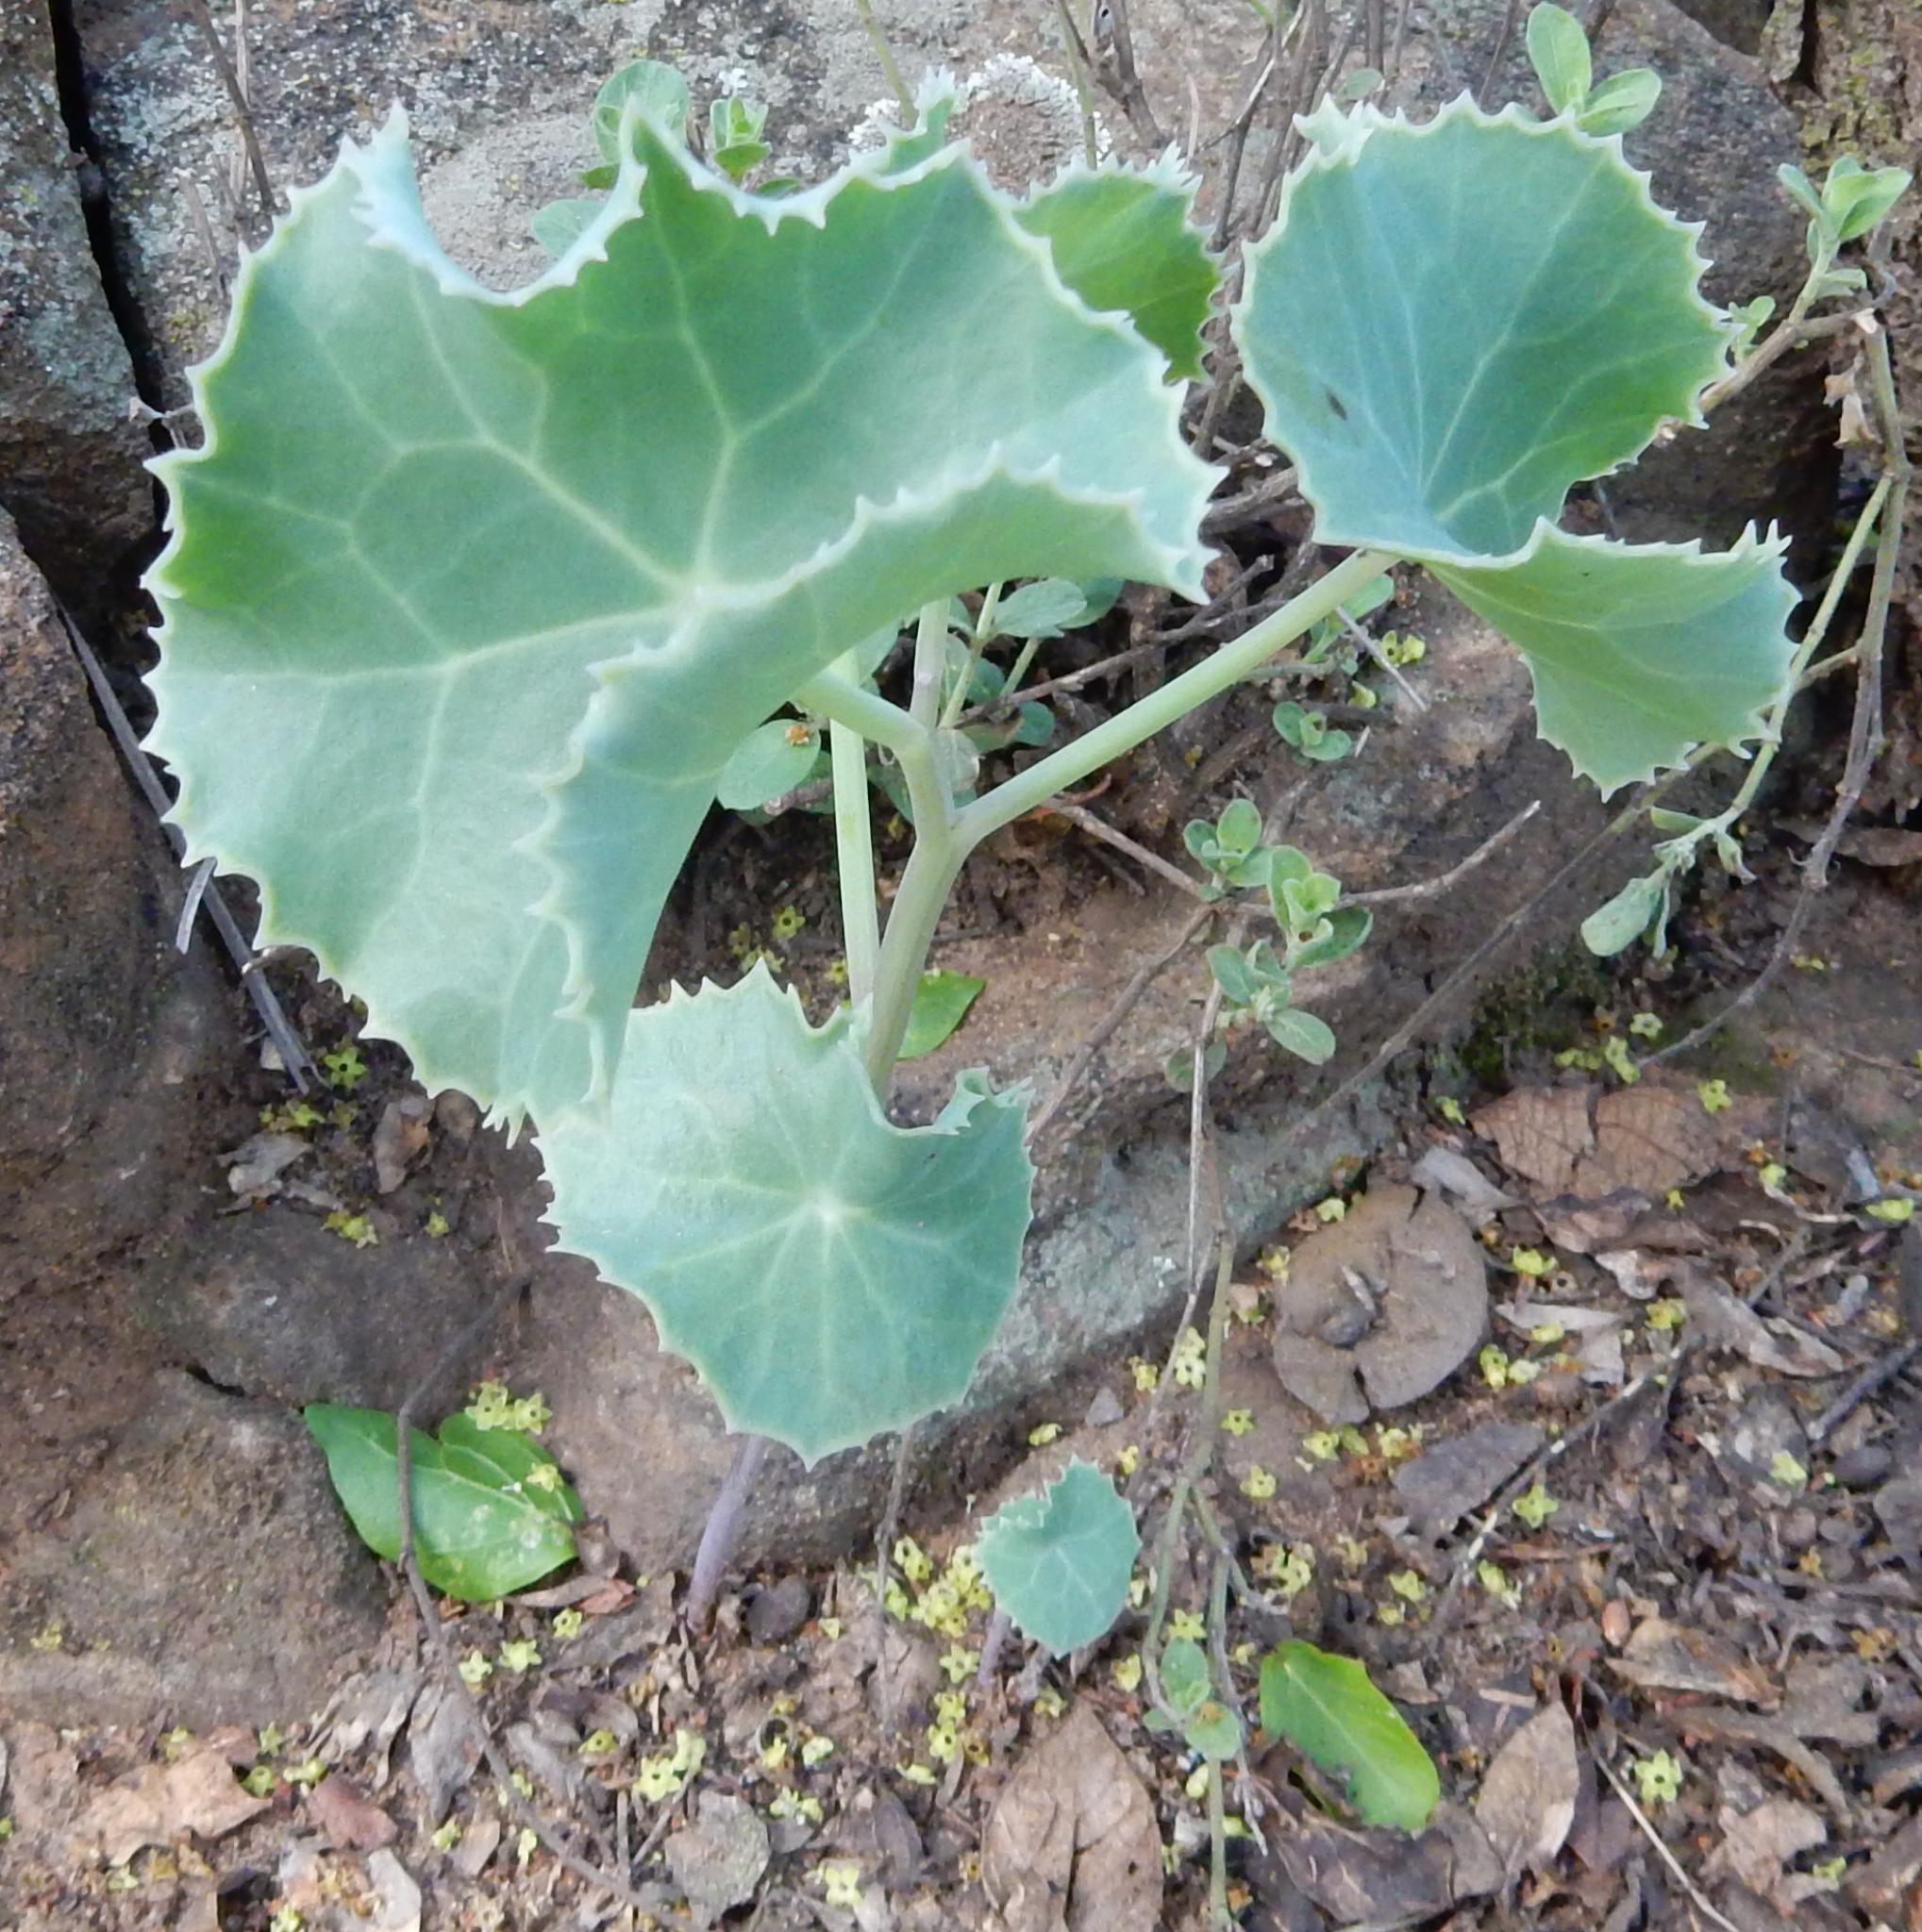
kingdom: Plantae
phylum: Tracheophyta
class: Magnoliopsida
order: Asterales
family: Asteraceae
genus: Senecio
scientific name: Senecio oxyriifolius
